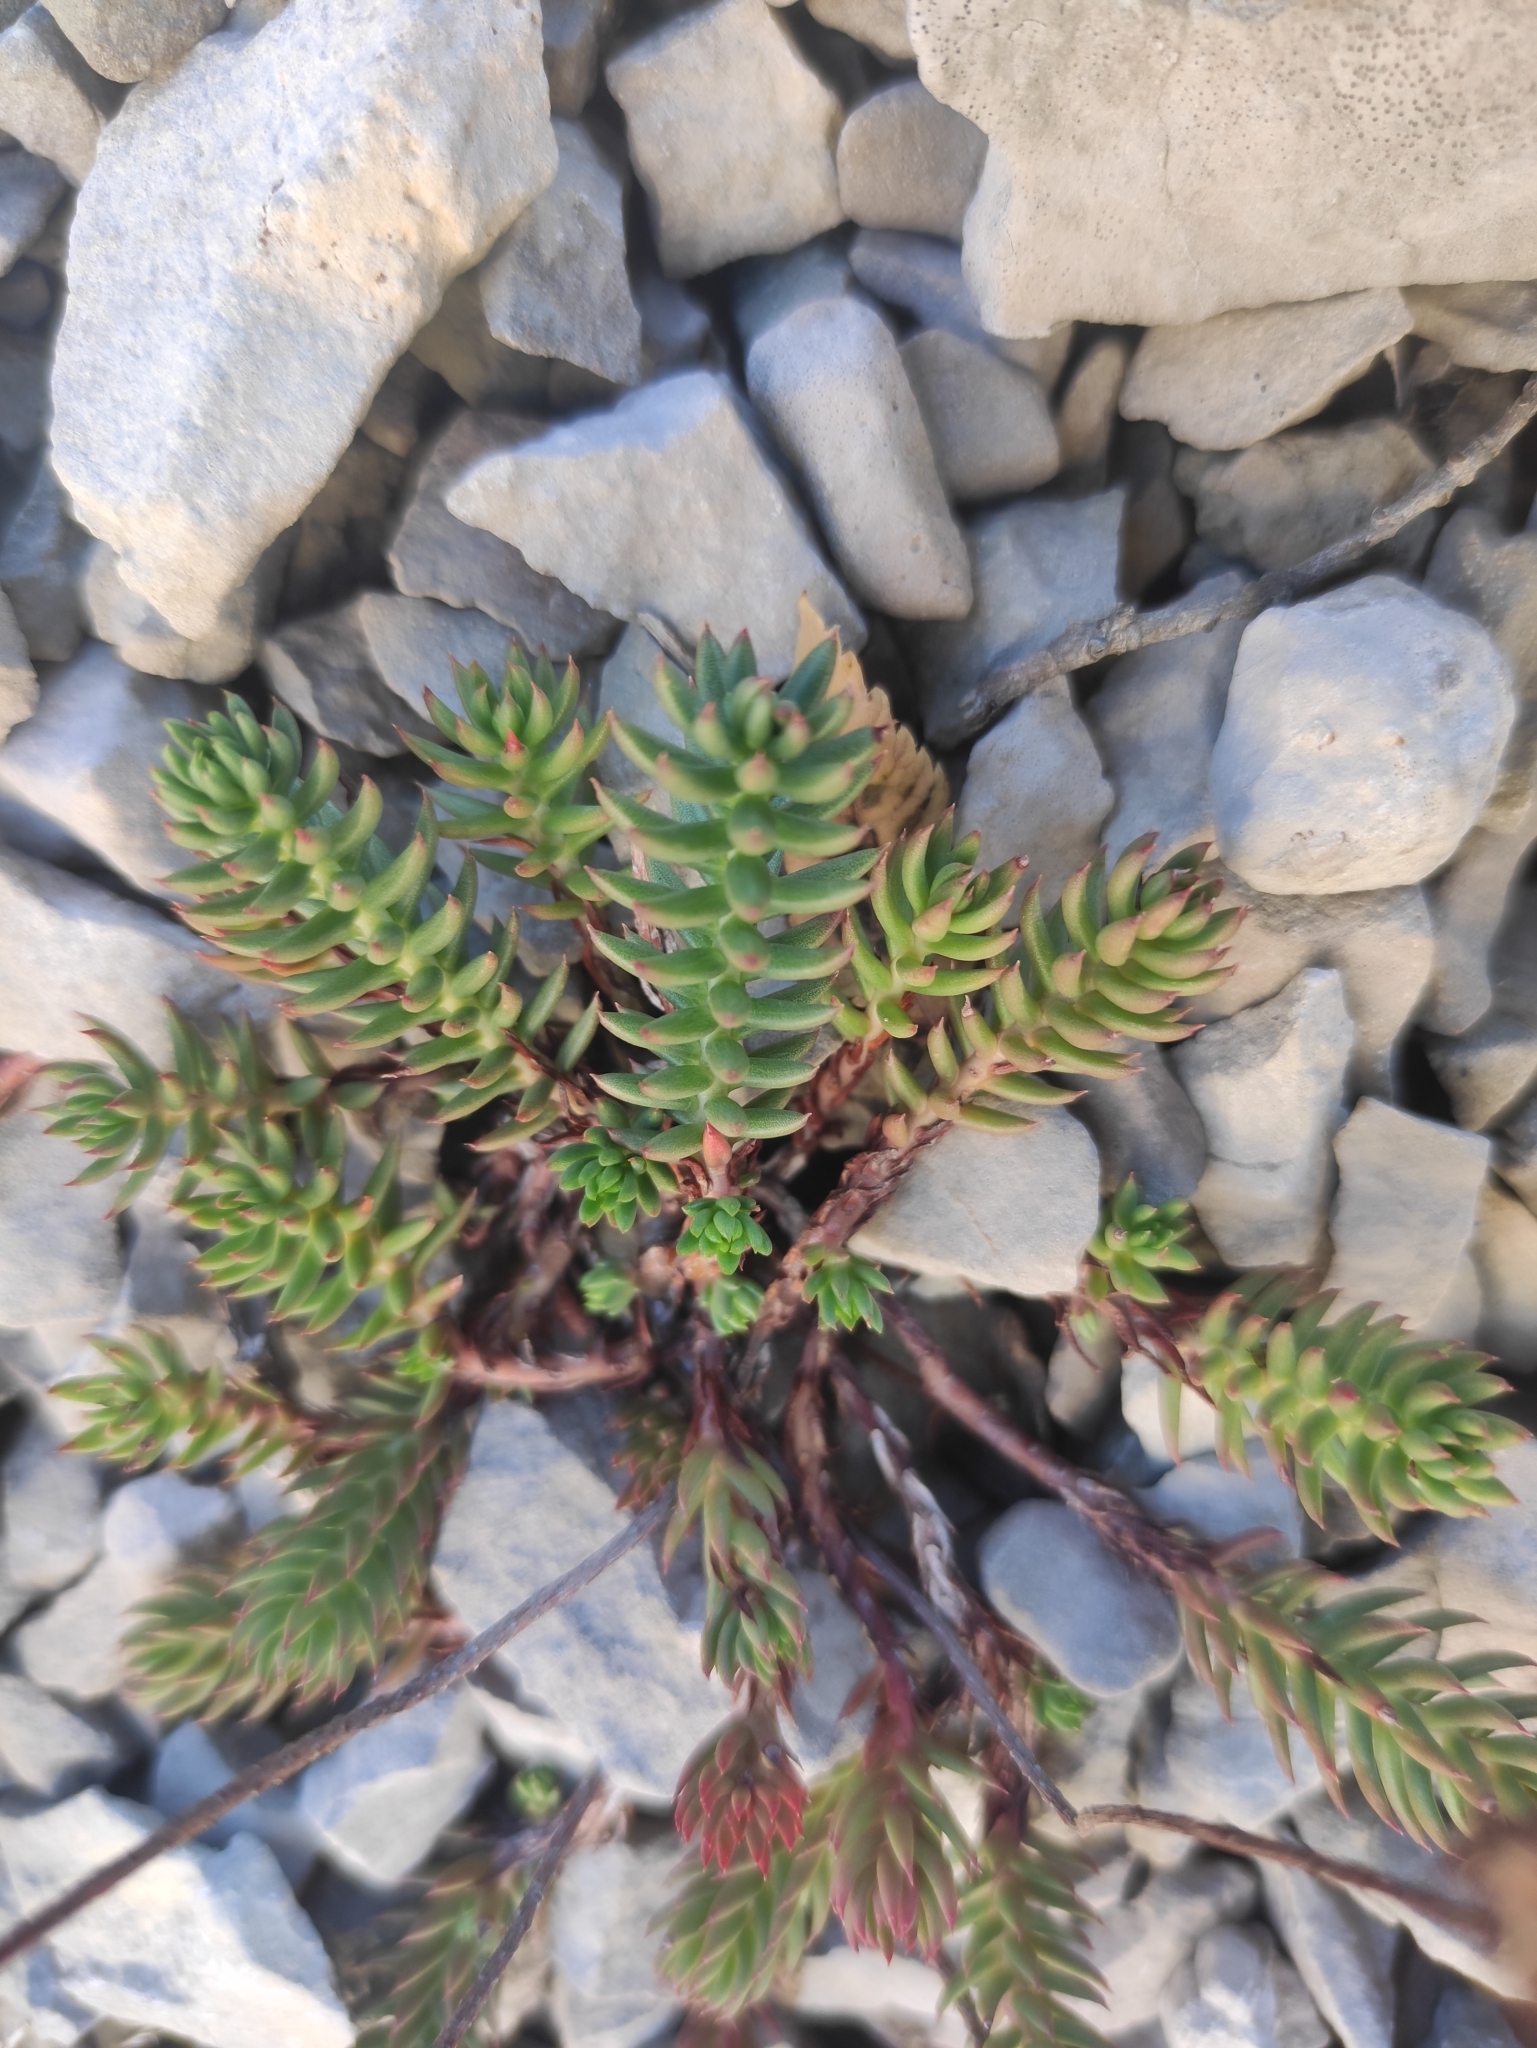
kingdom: Plantae
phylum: Tracheophyta
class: Magnoliopsida
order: Saxifragales
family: Crassulaceae
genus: Petrosedum
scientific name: Petrosedum rupestre
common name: Jenny's stonecrop
